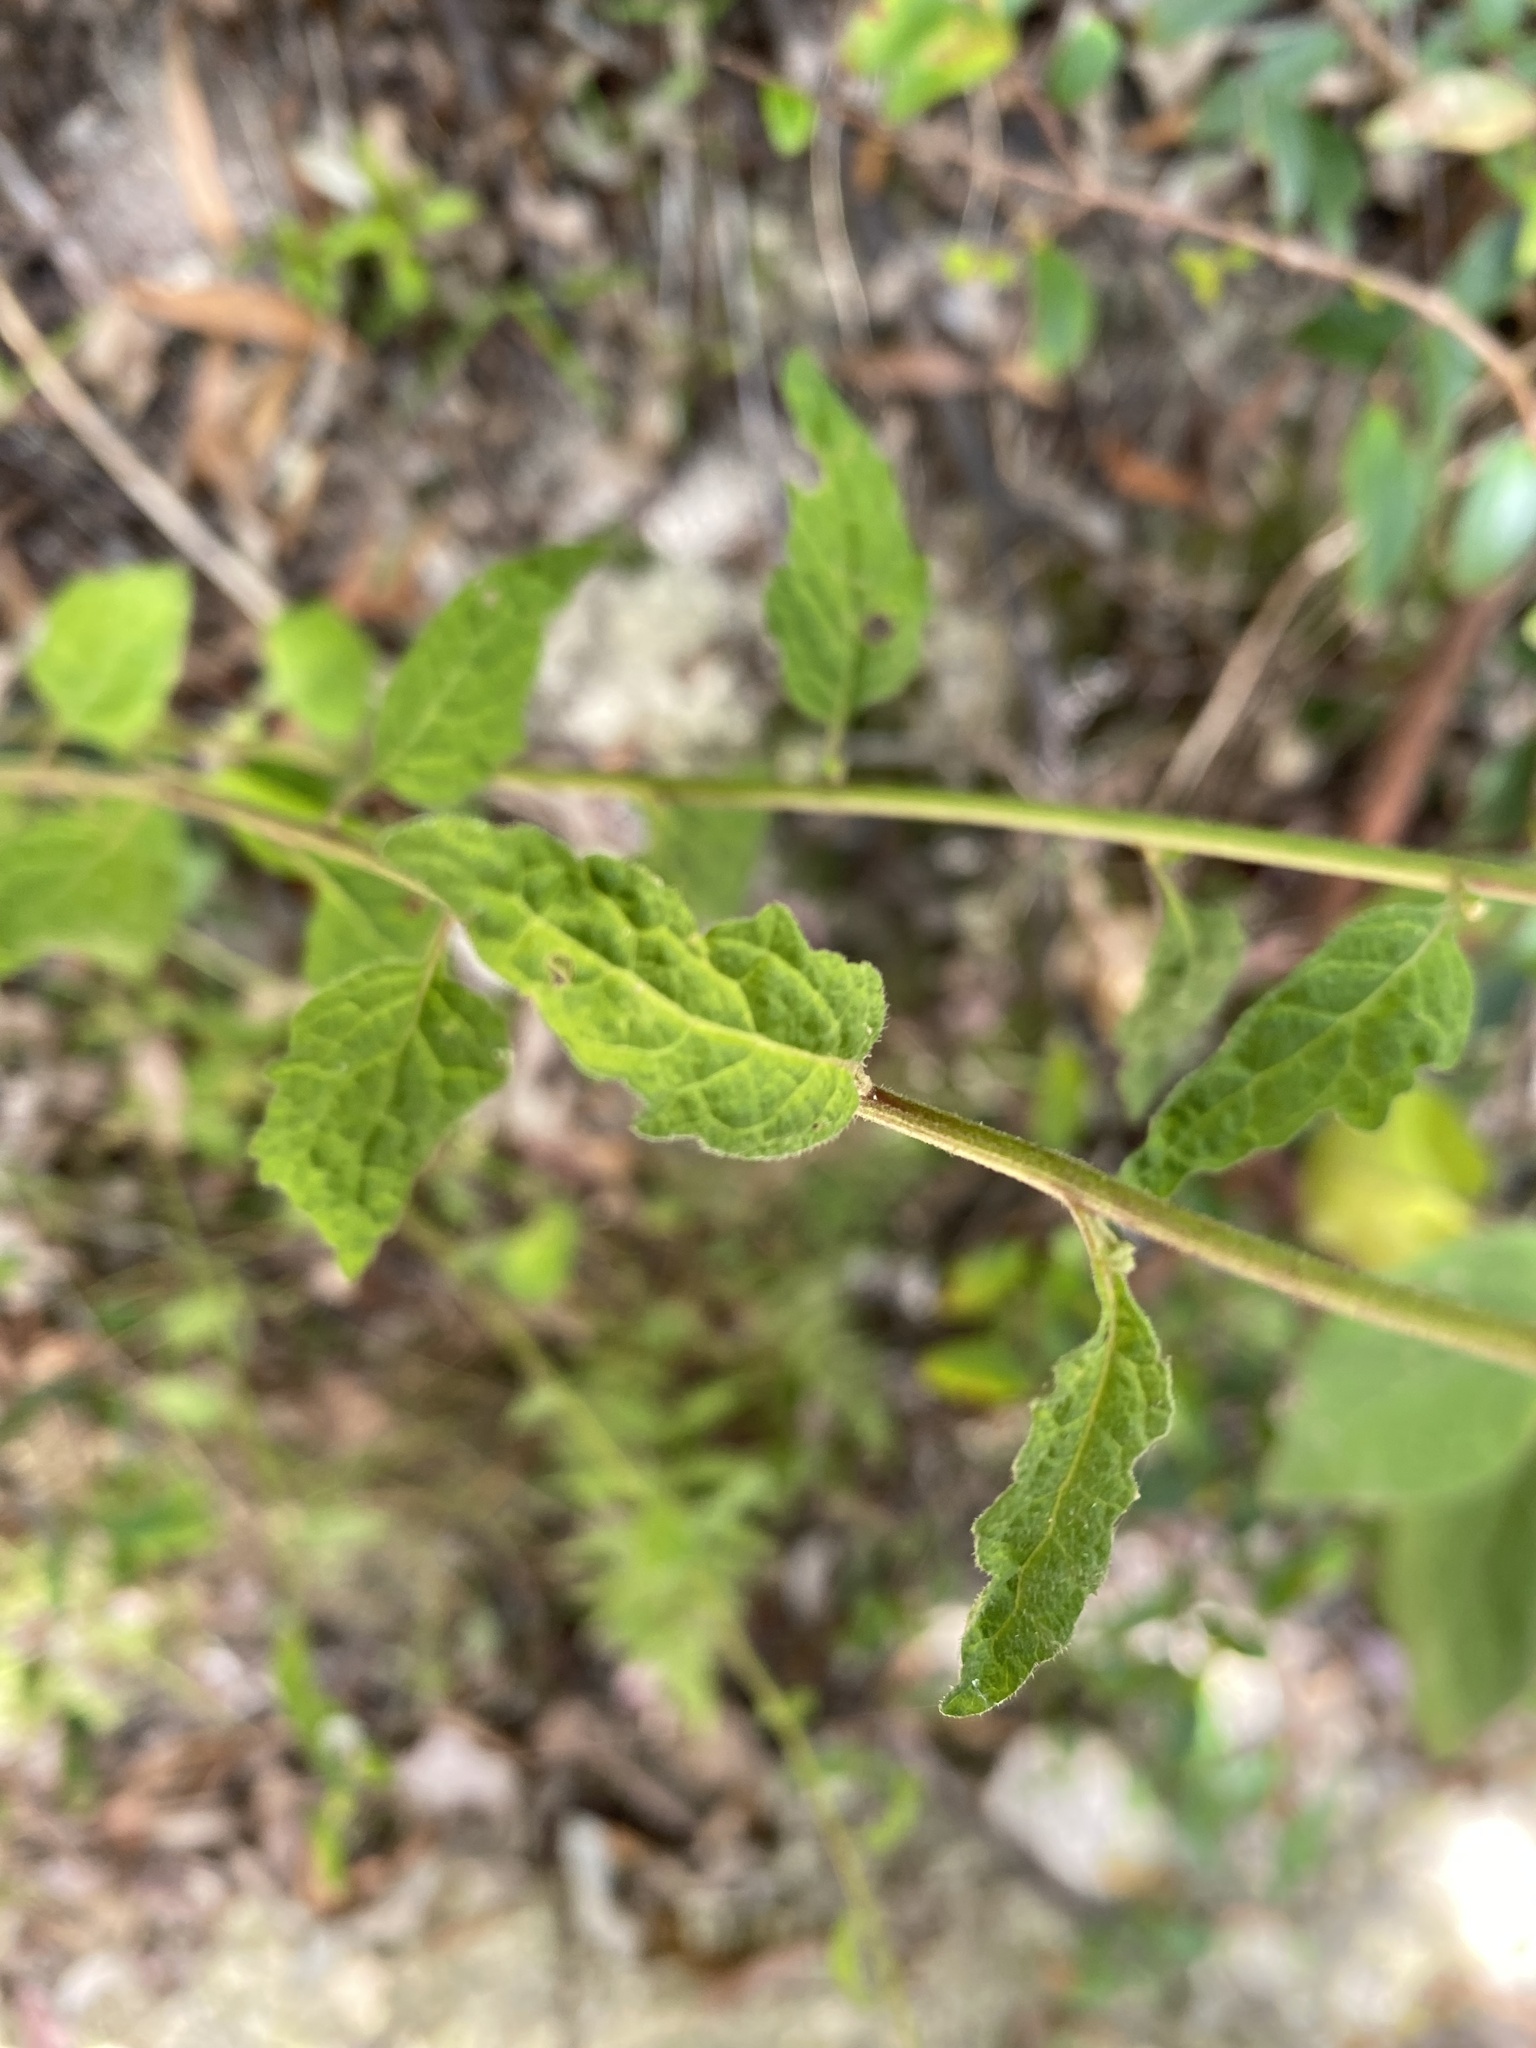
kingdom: Plantae
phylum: Tracheophyta
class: Magnoliopsida
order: Asterales
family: Asteraceae
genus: Cyanthillium
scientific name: Cyanthillium cinereum
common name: Little ironweed
